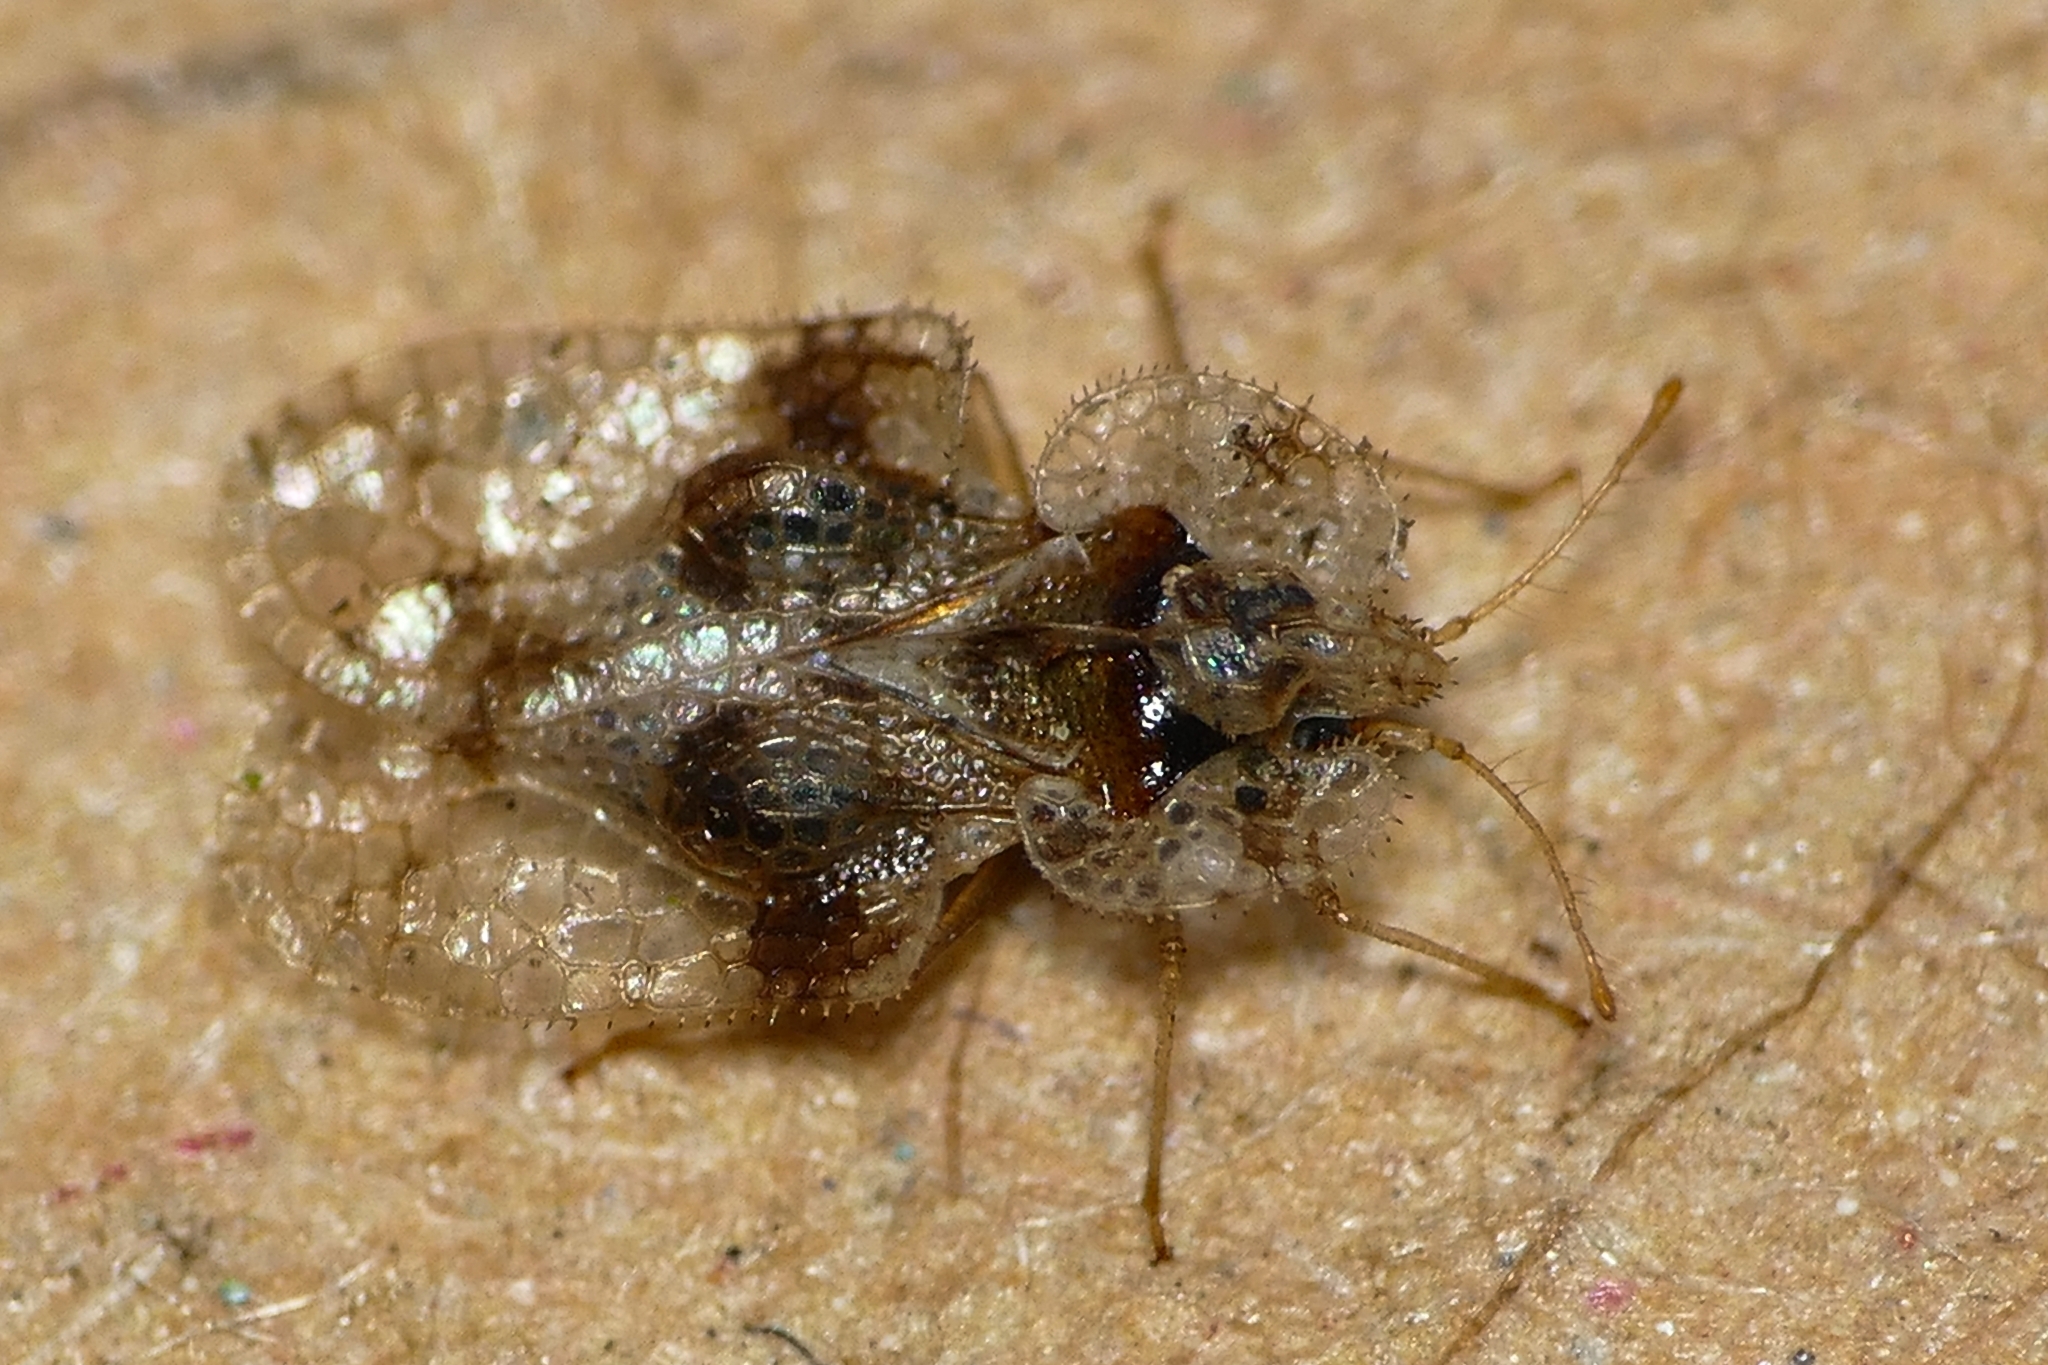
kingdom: Animalia
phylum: Arthropoda
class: Insecta
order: Hemiptera
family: Tingidae
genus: Corythucha
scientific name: Corythucha arcuata
